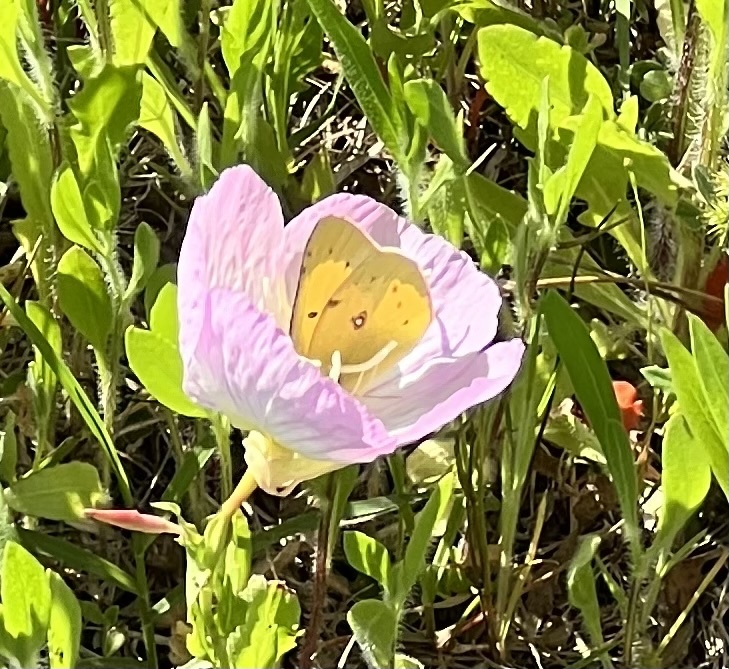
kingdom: Animalia
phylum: Arthropoda
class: Insecta
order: Lepidoptera
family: Pieridae
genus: Colias
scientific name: Colias eurytheme
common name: Alfalfa butterfly
